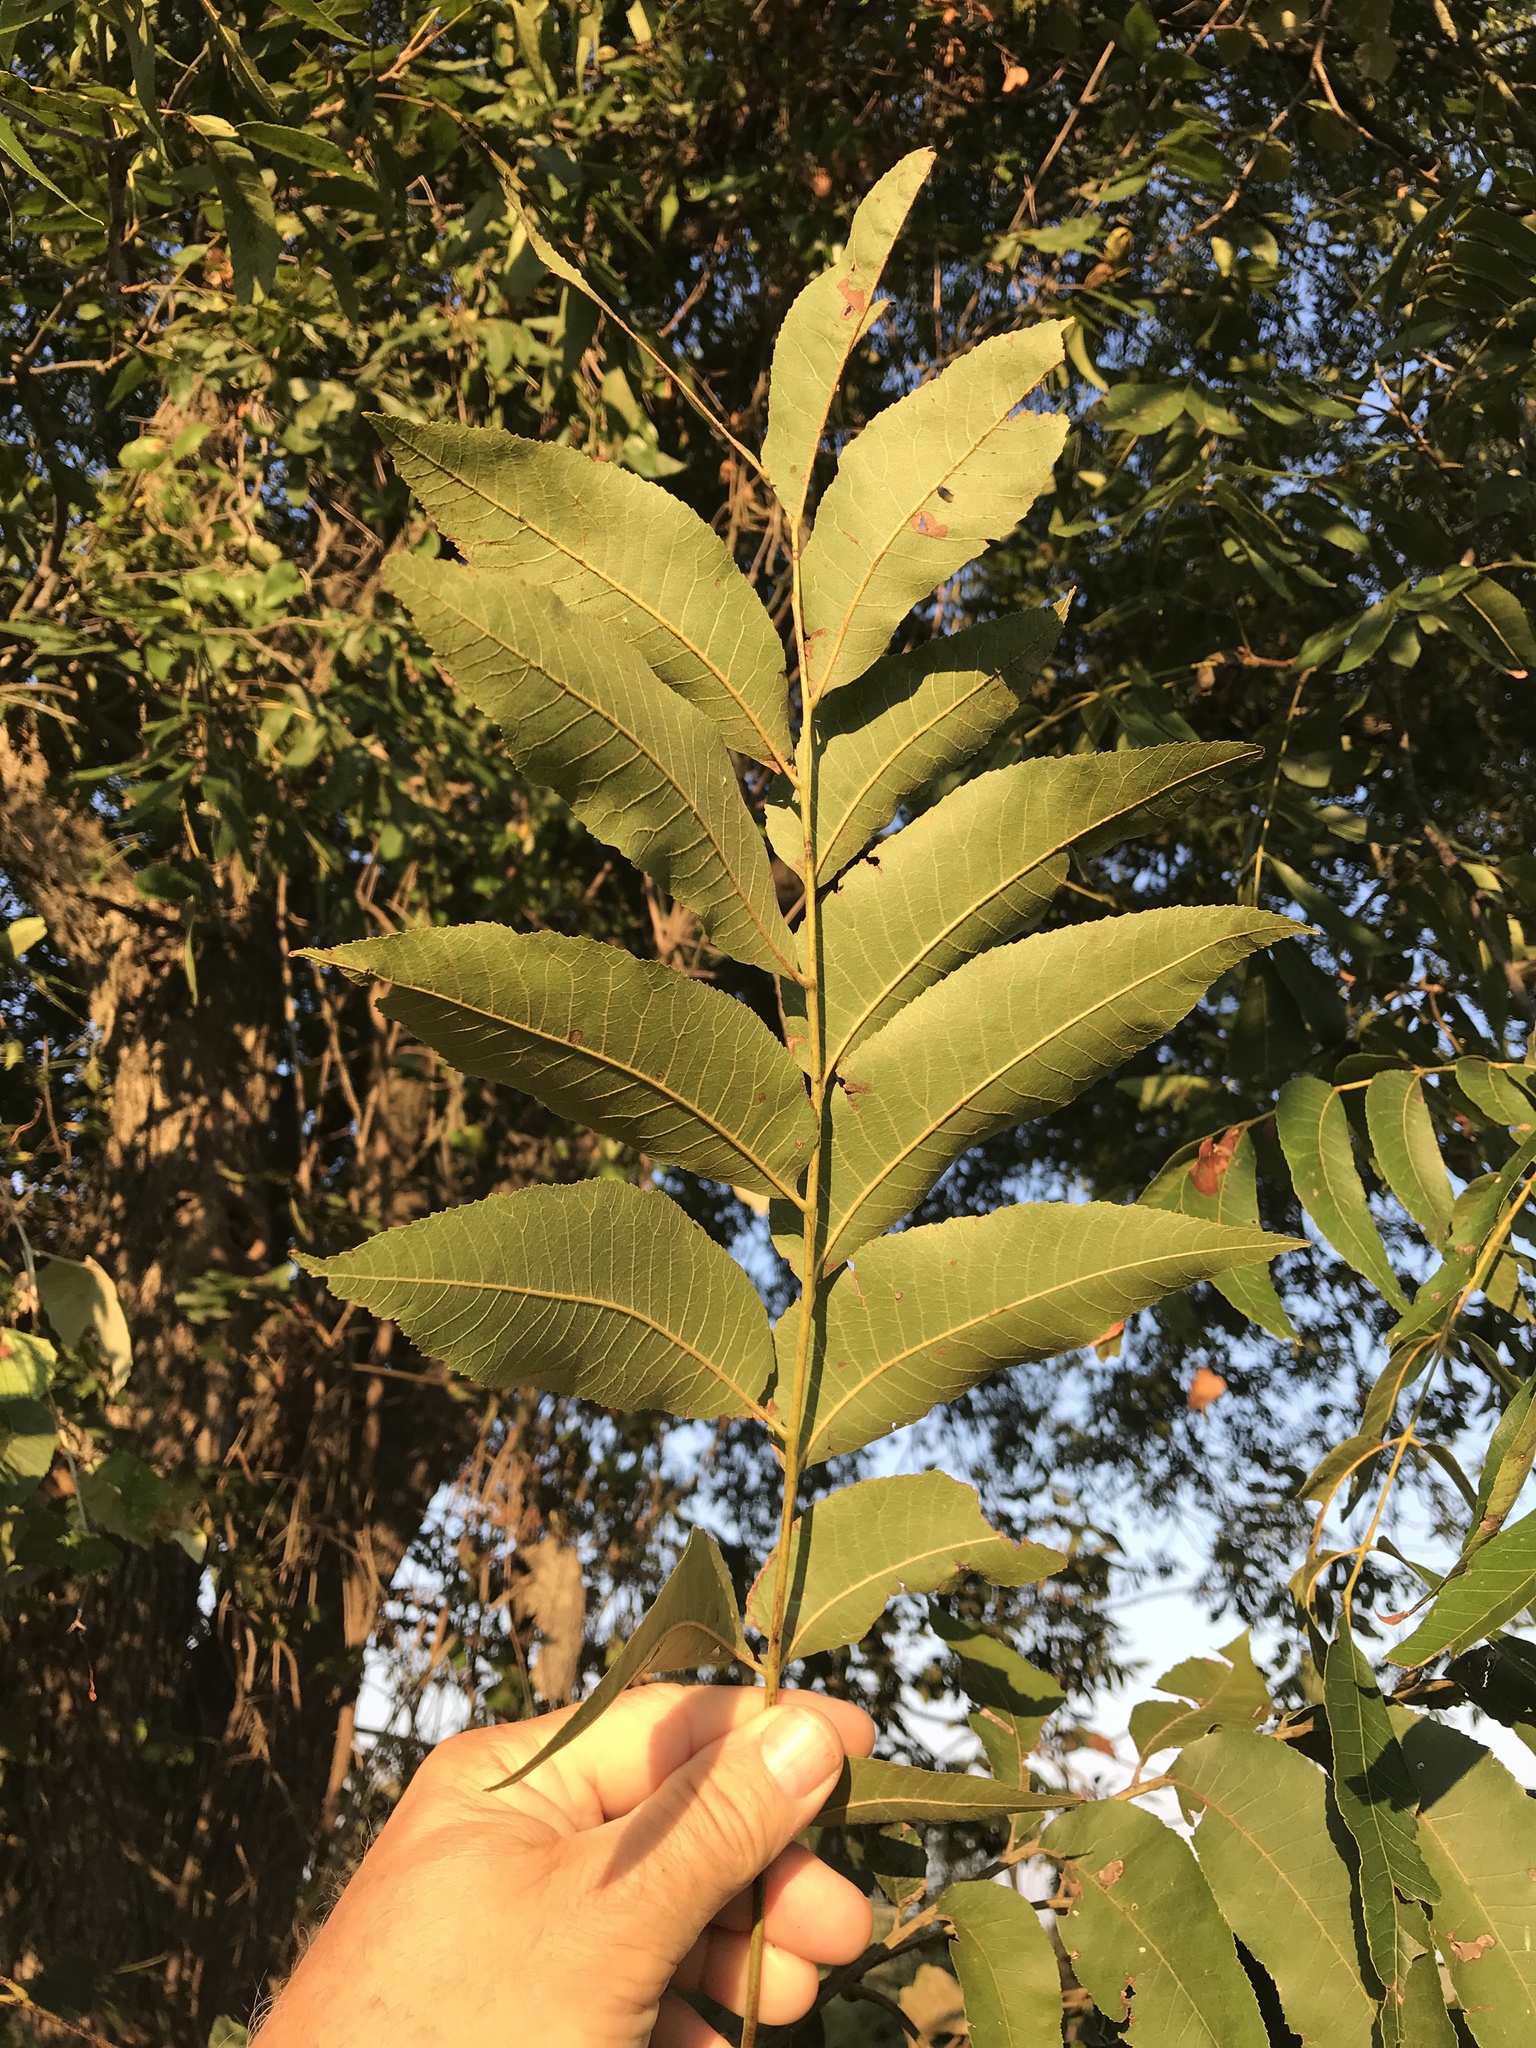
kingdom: Plantae
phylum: Tracheophyta
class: Magnoliopsida
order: Fagales
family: Juglandaceae
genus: Carya
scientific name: Carya illinoinensis
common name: Pecan
